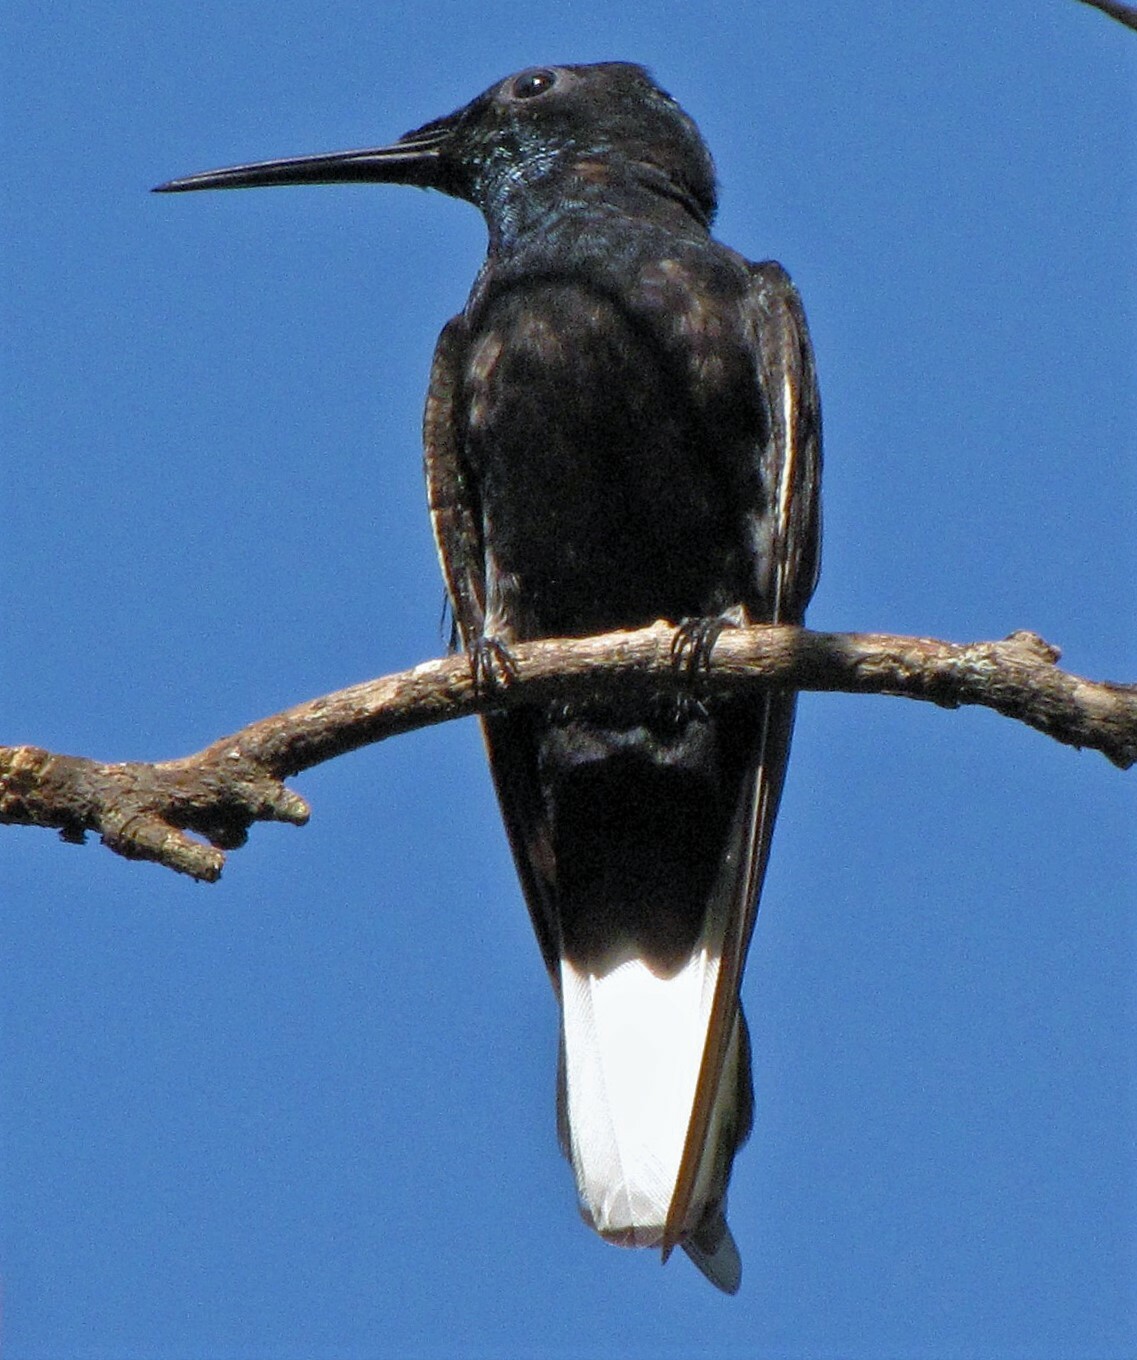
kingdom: Animalia
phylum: Chordata
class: Aves
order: Apodiformes
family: Trochilidae
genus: Florisuga
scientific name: Florisuga fusca
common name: Black jacobin
